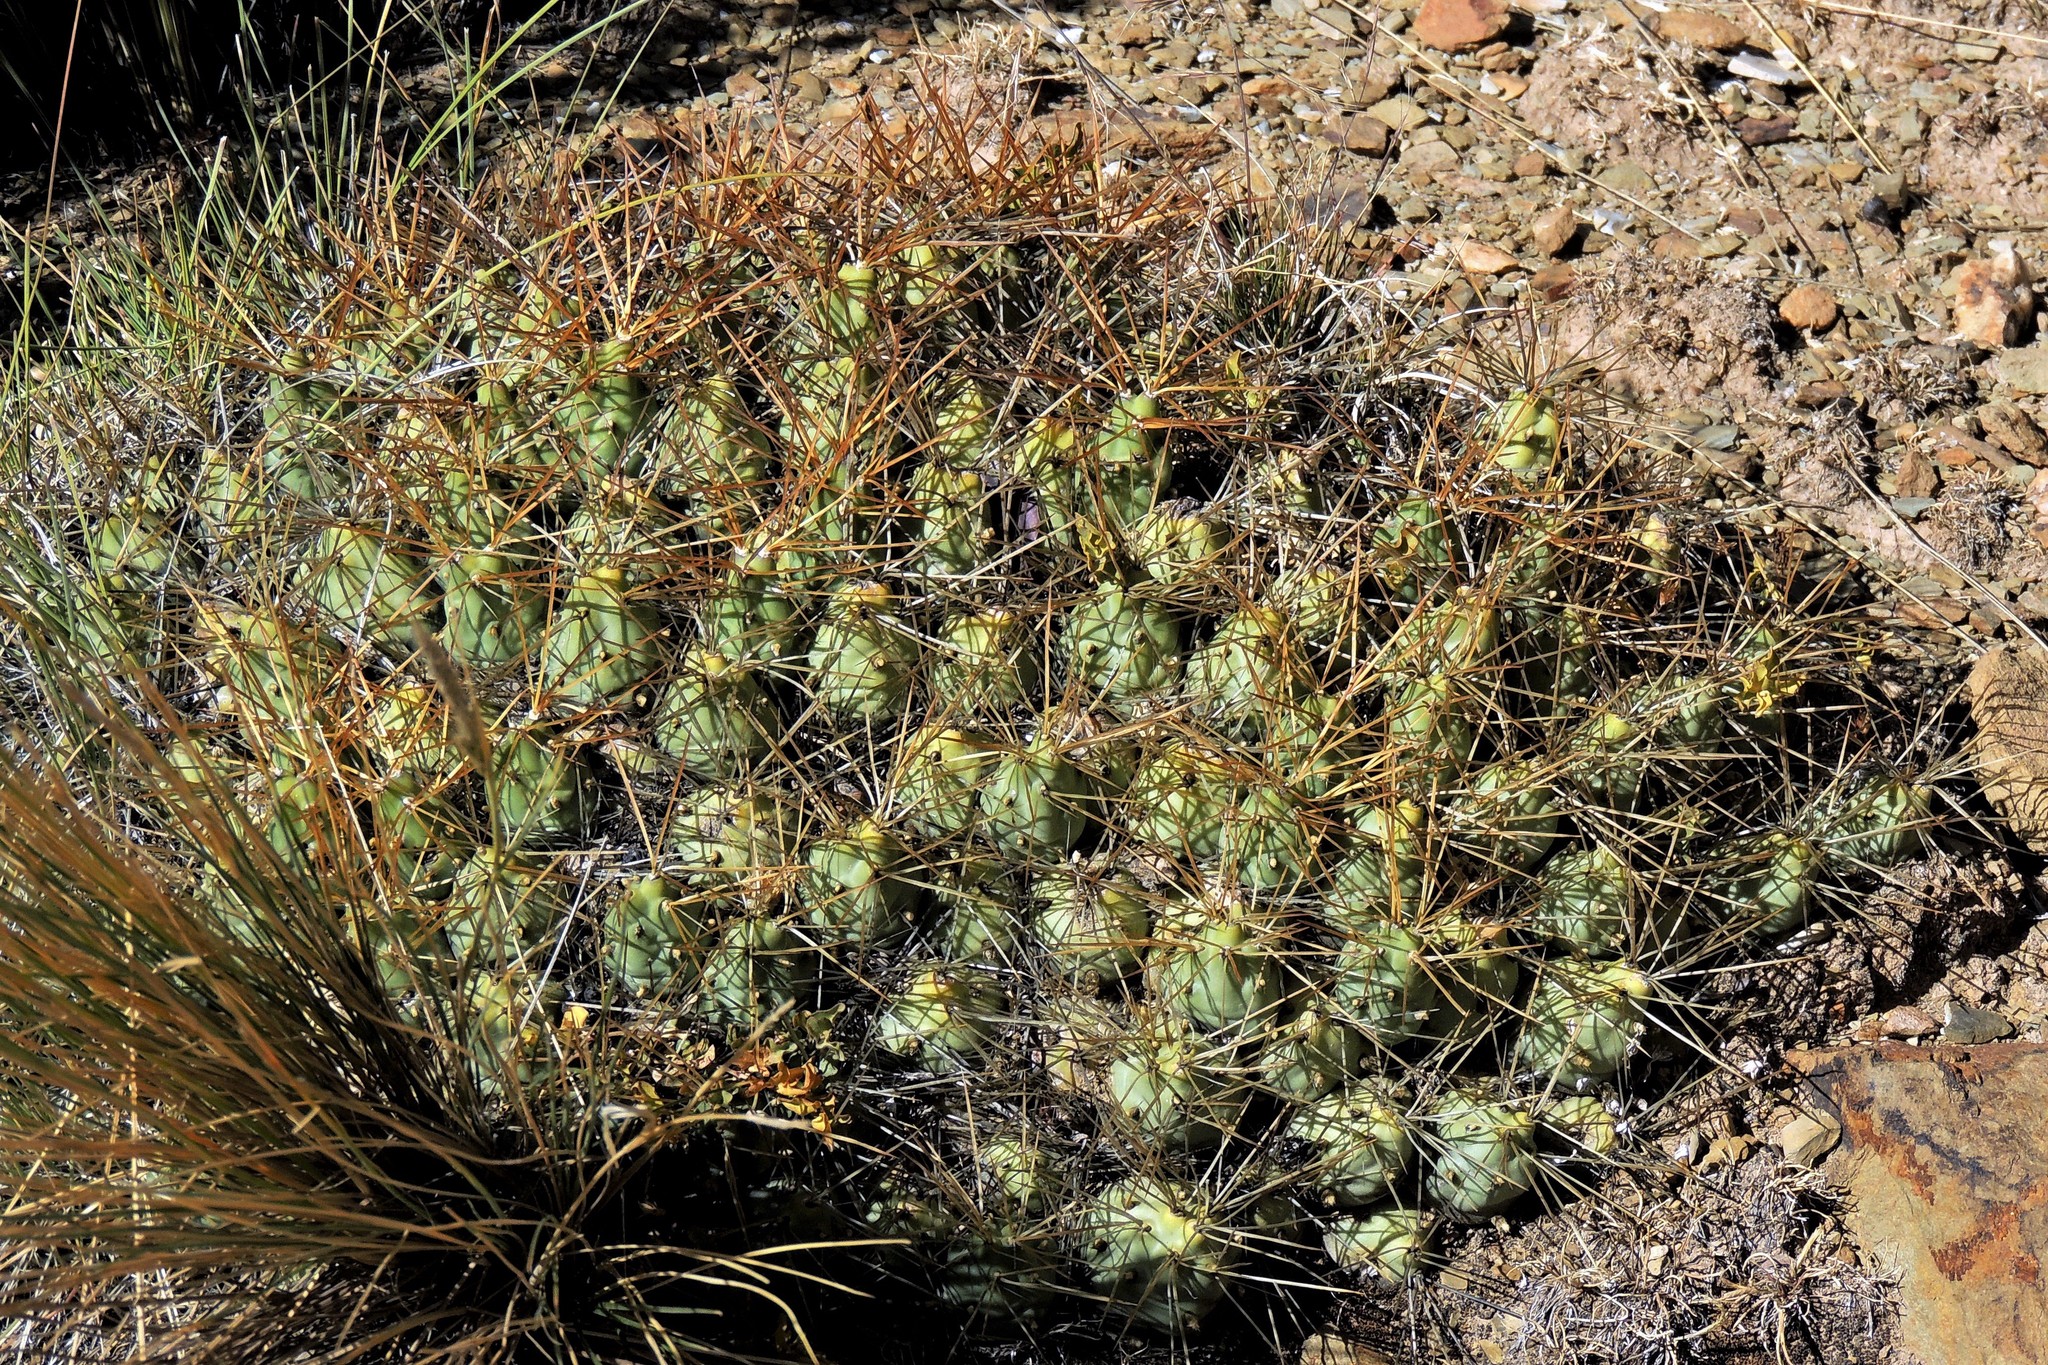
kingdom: Plantae
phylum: Tracheophyta
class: Magnoliopsida
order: Caryophyllales
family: Cactaceae
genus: Cumulopuntia
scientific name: Cumulopuntia boliviana
